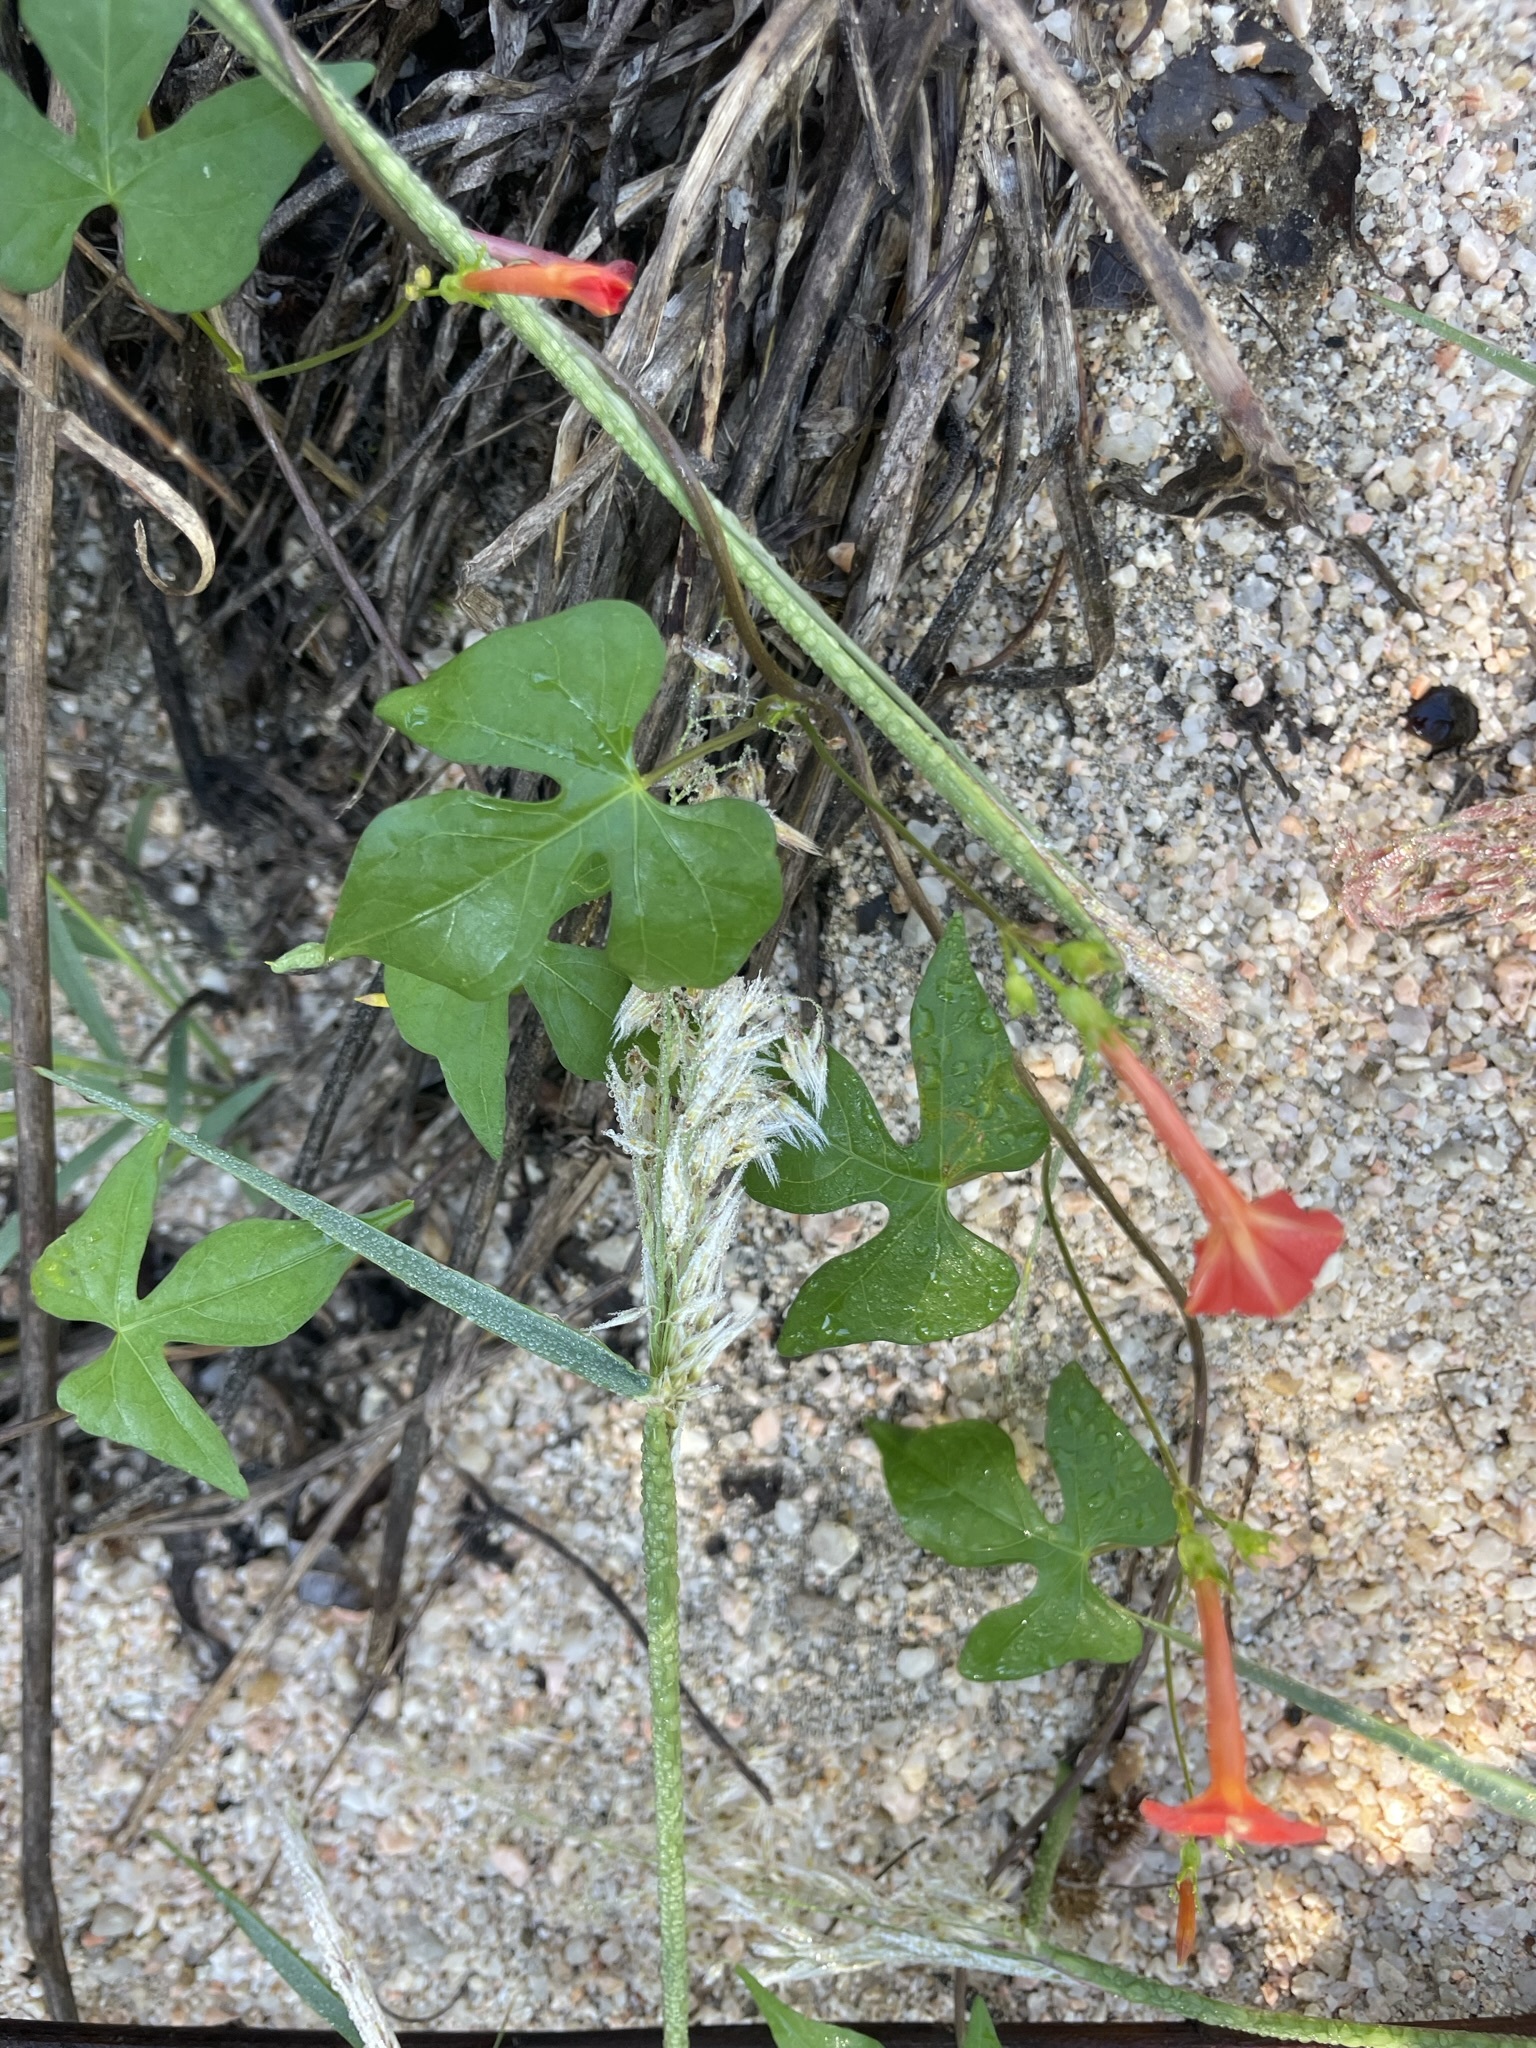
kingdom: Plantae
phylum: Tracheophyta
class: Magnoliopsida
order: Solanales
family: Convolvulaceae
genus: Ipomoea
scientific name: Ipomoea cristulata
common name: Trans-pecos morning-glory
